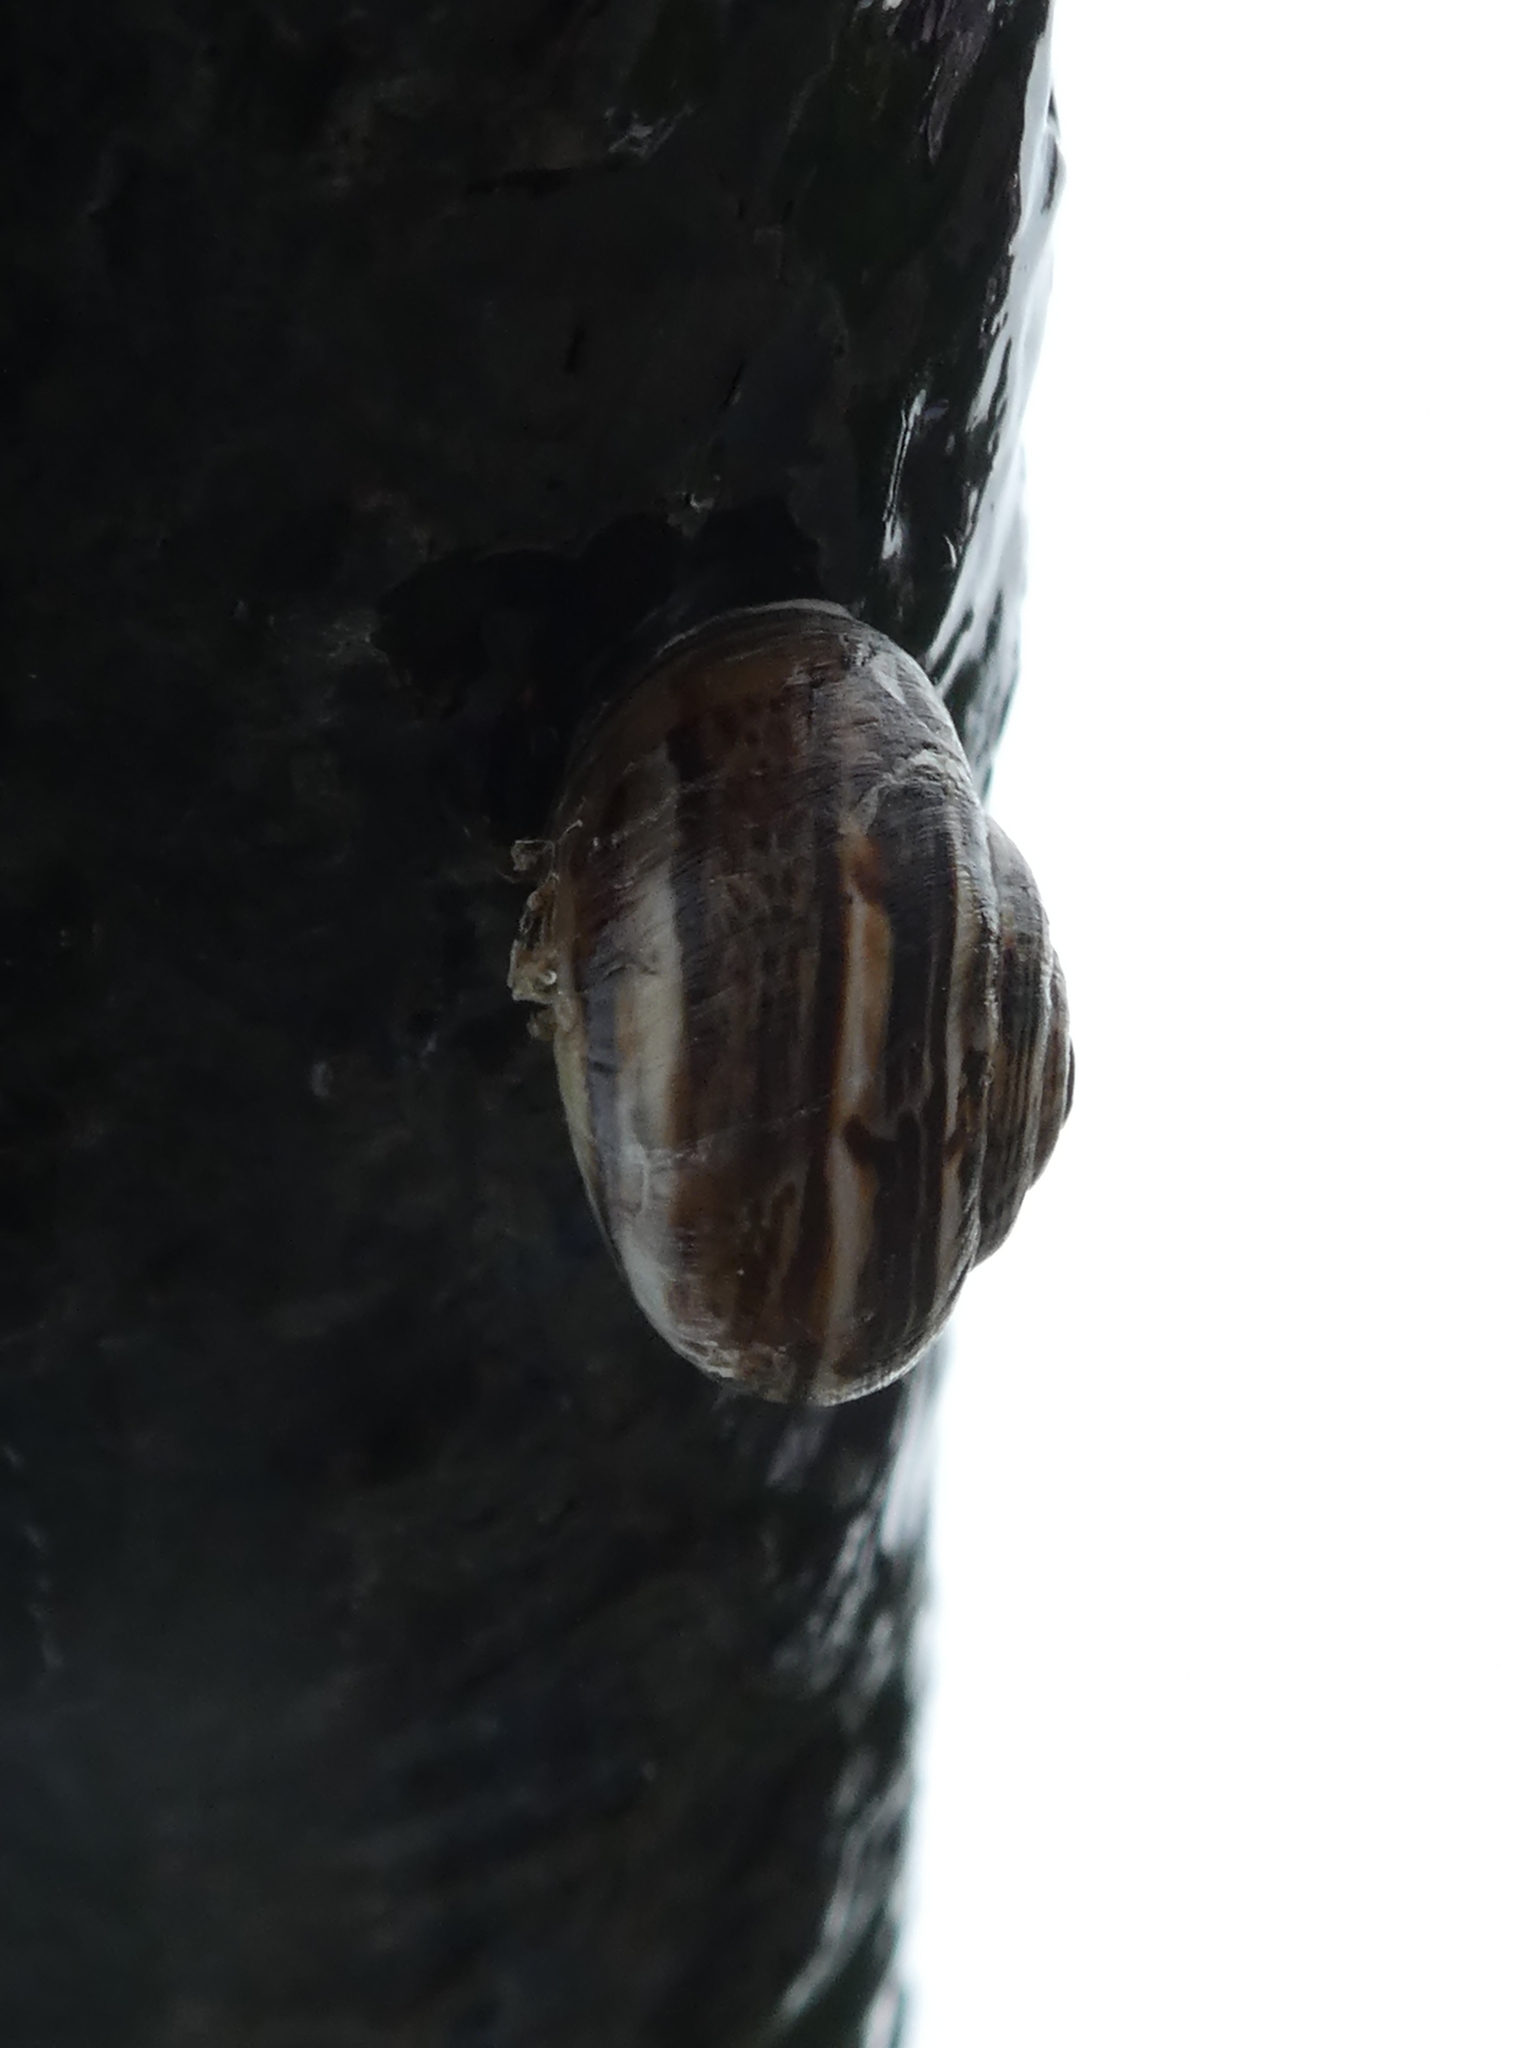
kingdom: Animalia
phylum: Mollusca
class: Gastropoda
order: Stylommatophora
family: Helicidae
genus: Theba
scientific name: Theba pisana
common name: White snail
